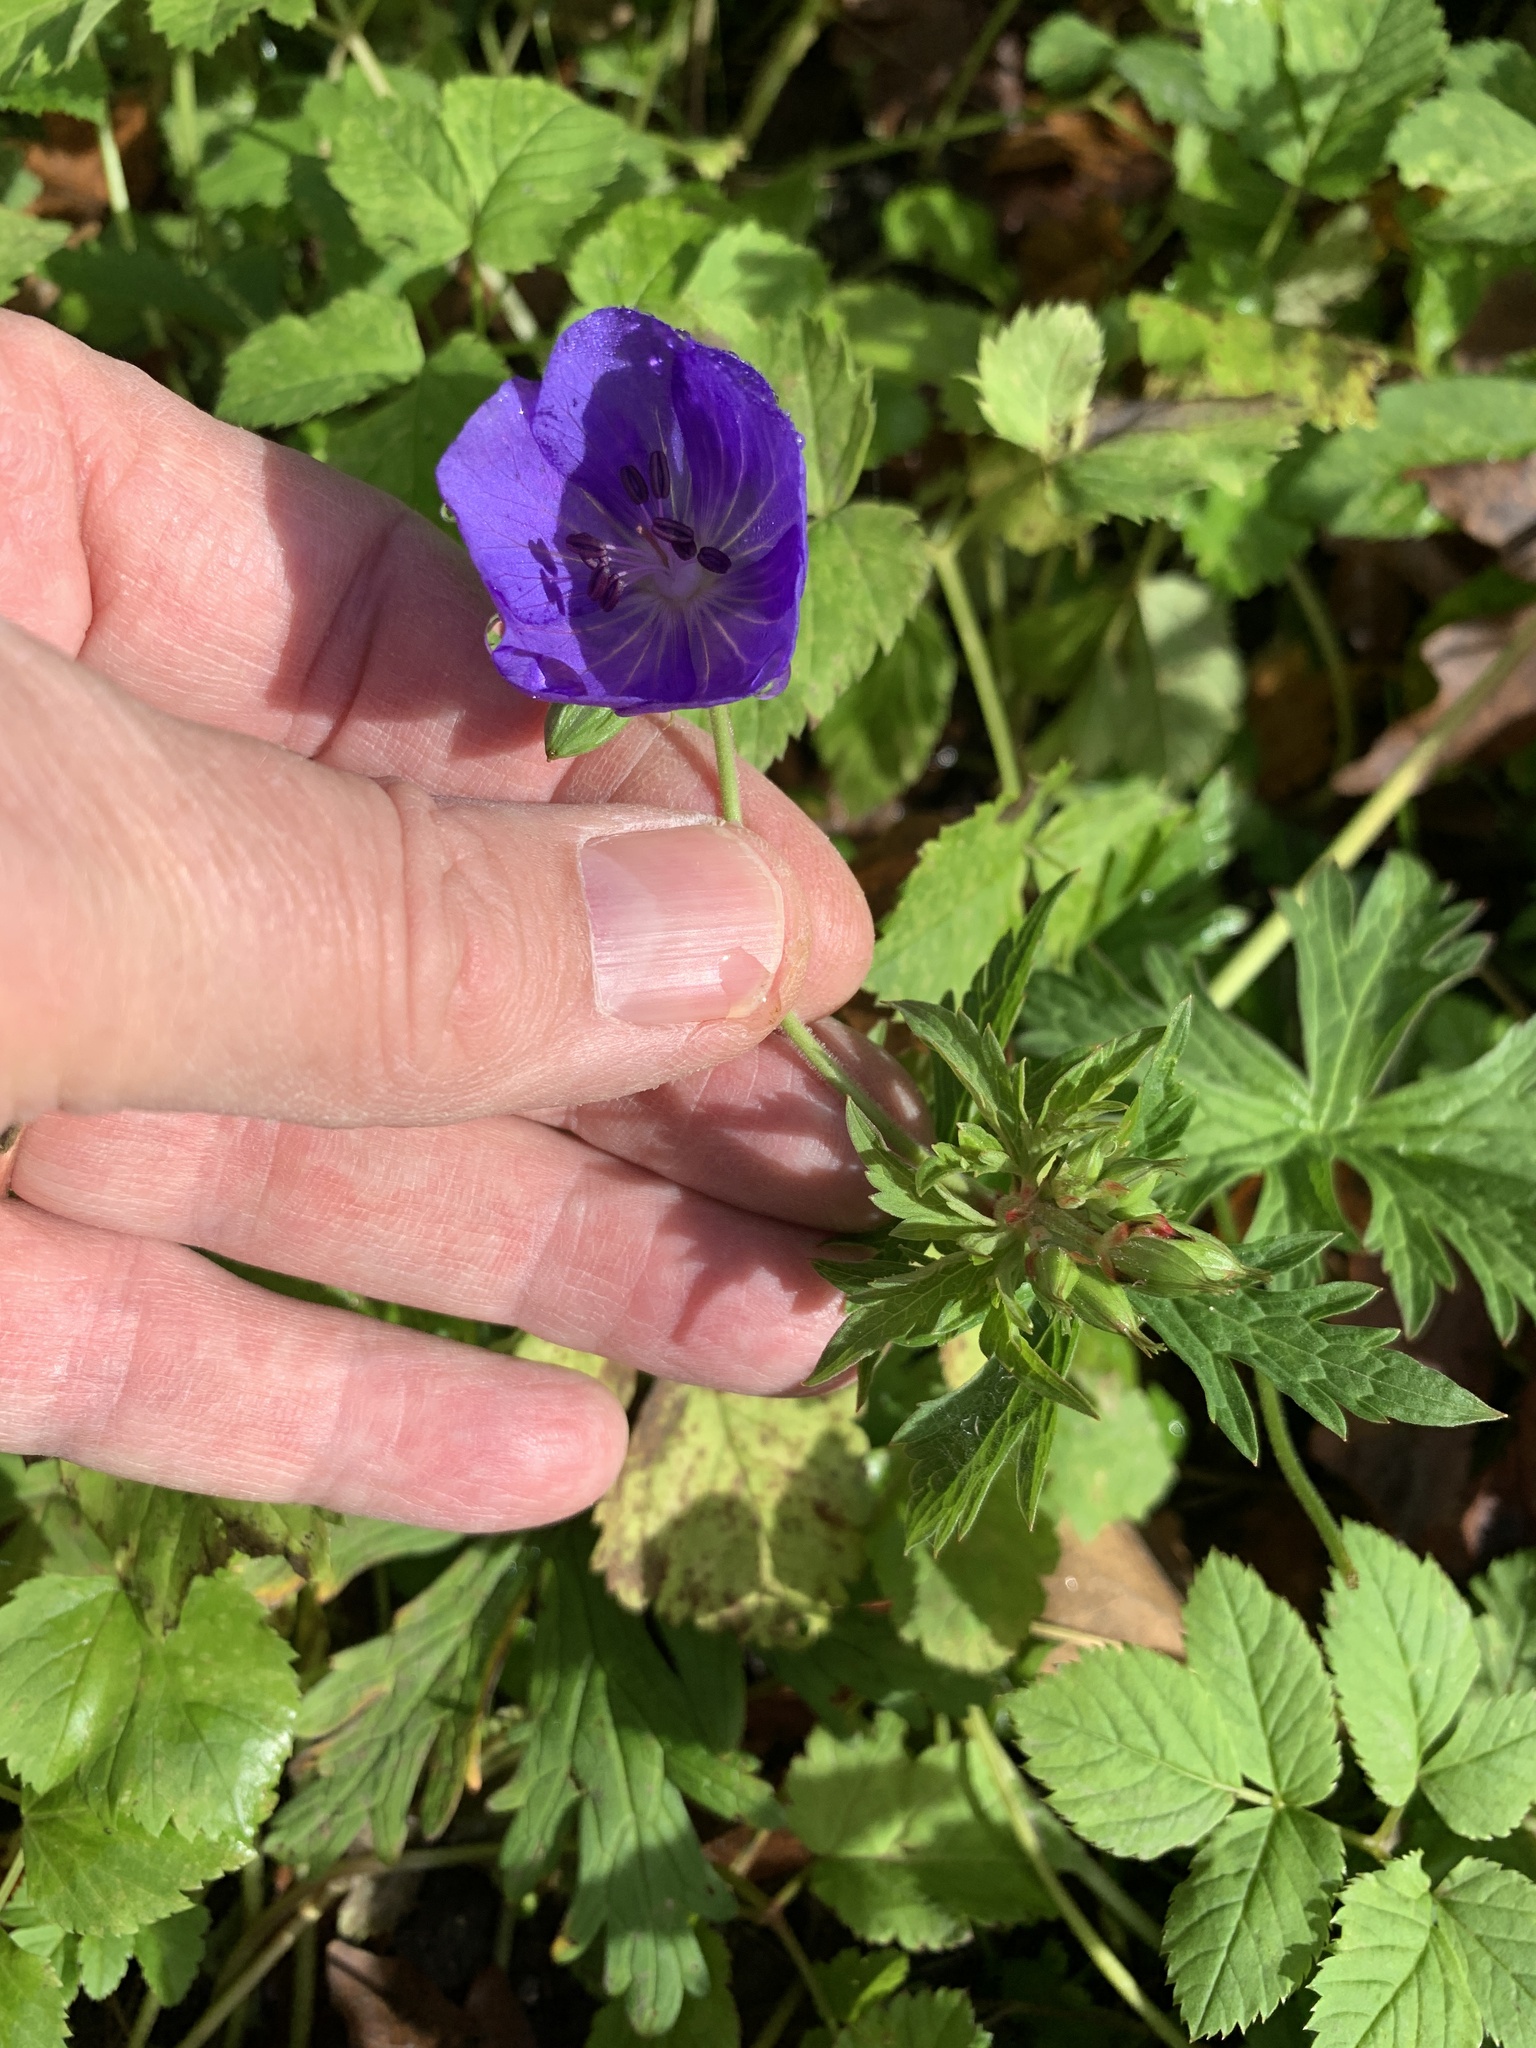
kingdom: Plantae
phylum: Tracheophyta
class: Magnoliopsida
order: Geraniales
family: Geraniaceae
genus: Geranium
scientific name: Geranium pratense
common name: Meadow crane's-bill
